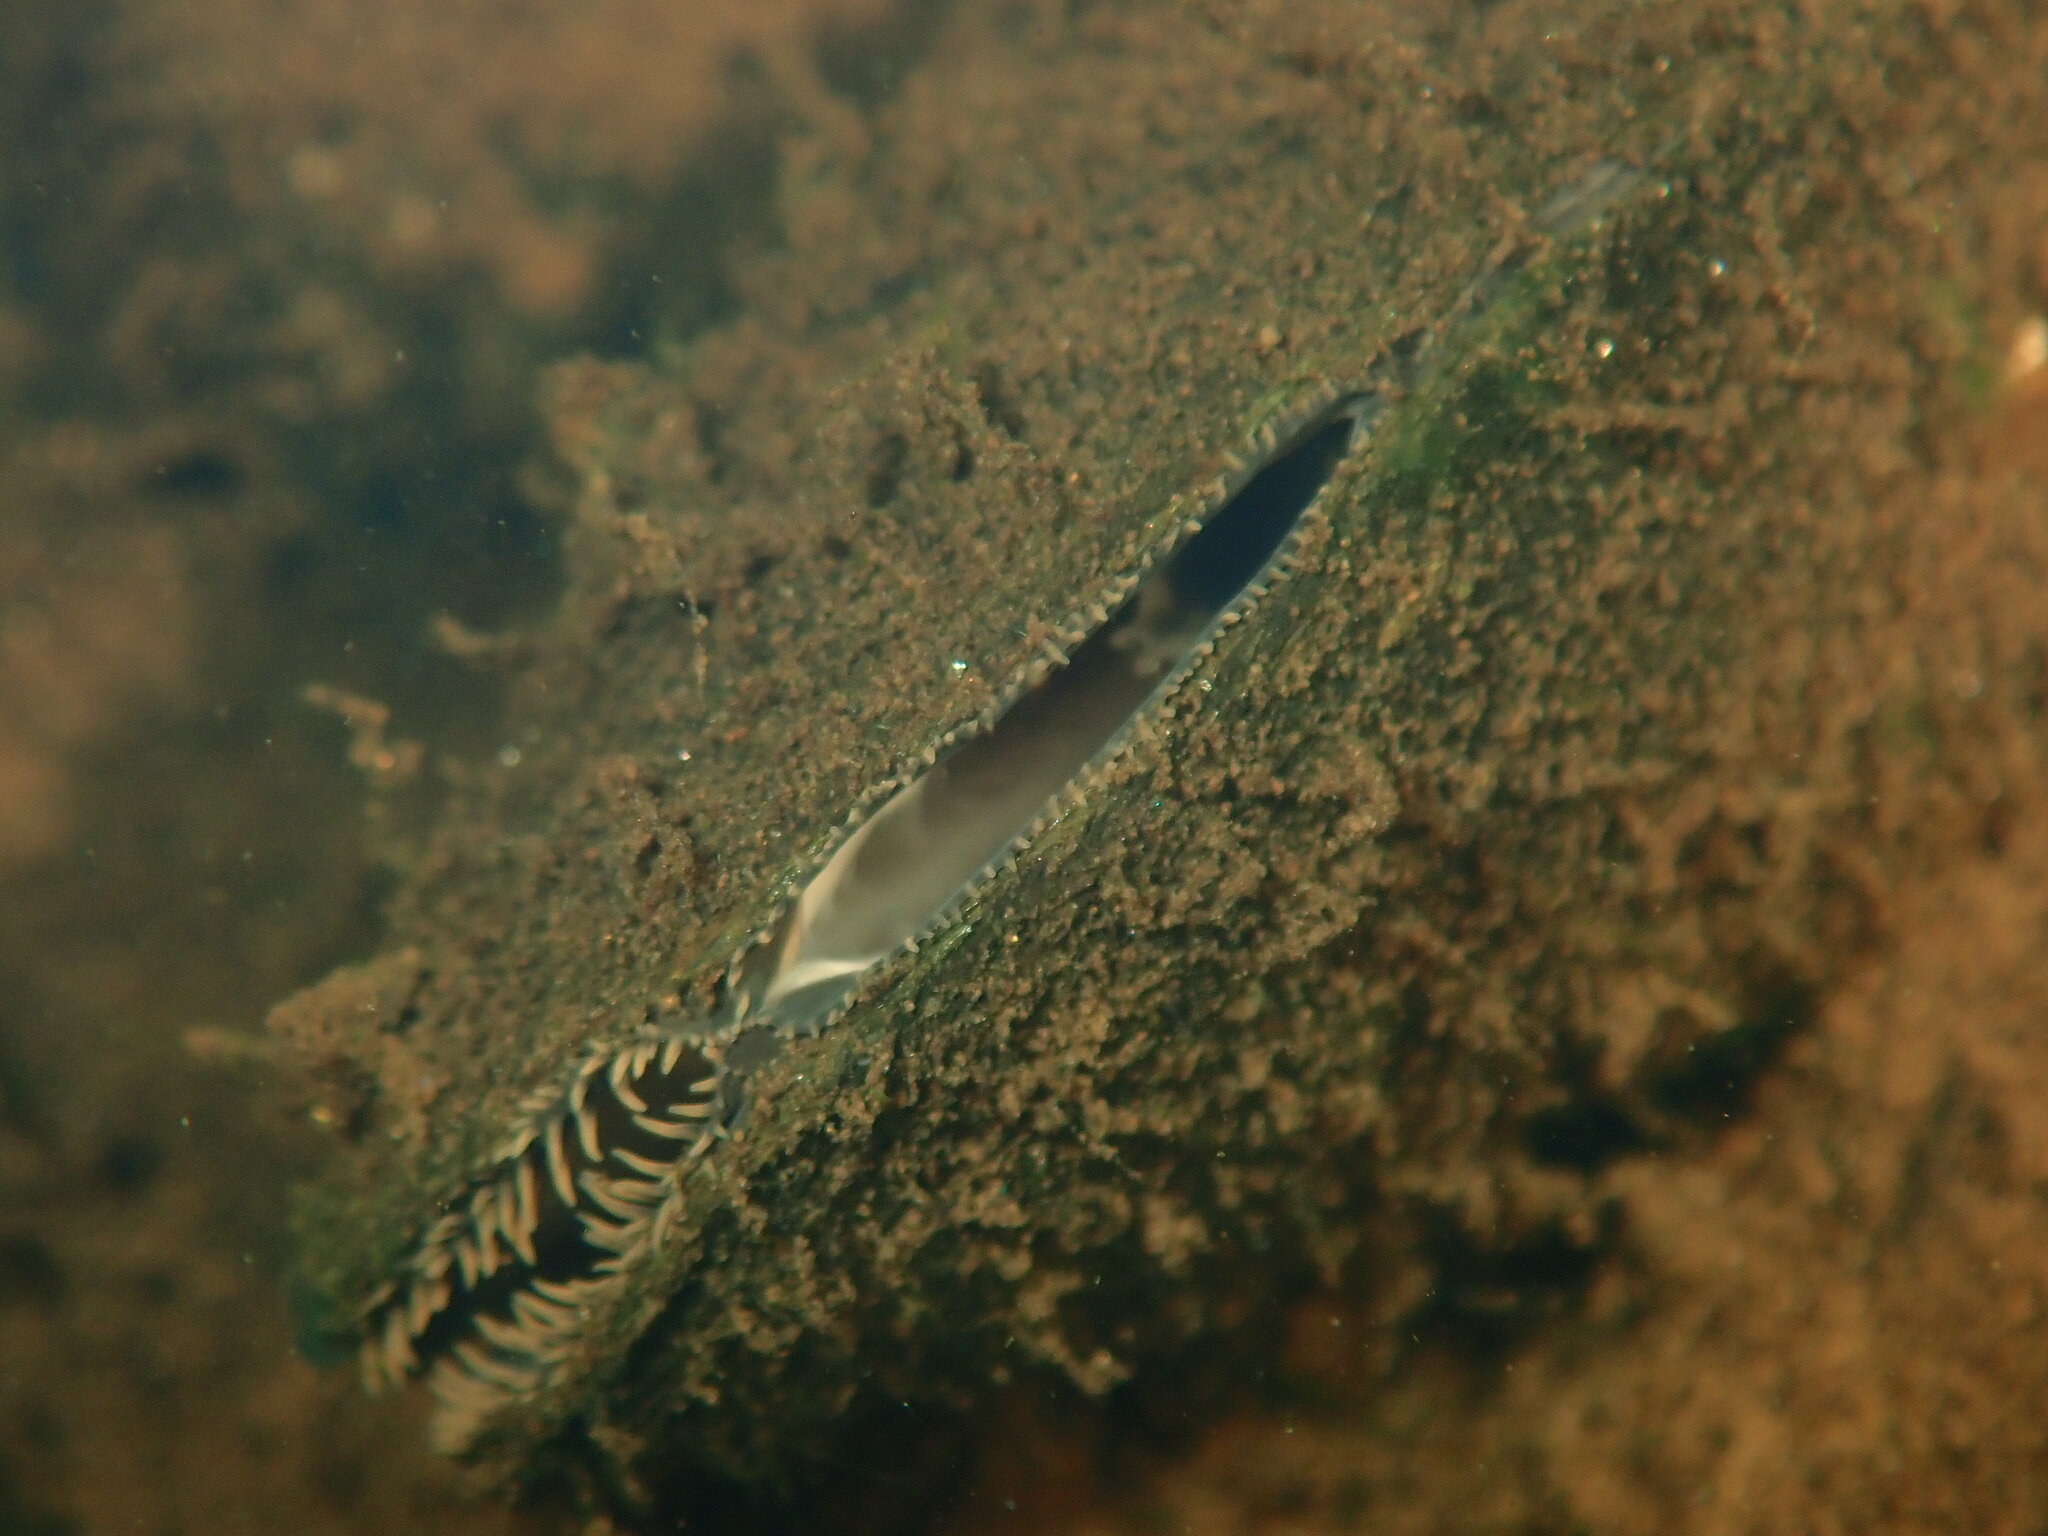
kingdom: Animalia
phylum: Mollusca
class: Bivalvia
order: Unionida
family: Unionidae
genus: Elliptio
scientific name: Elliptio complanata
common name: Eastern elliptio
